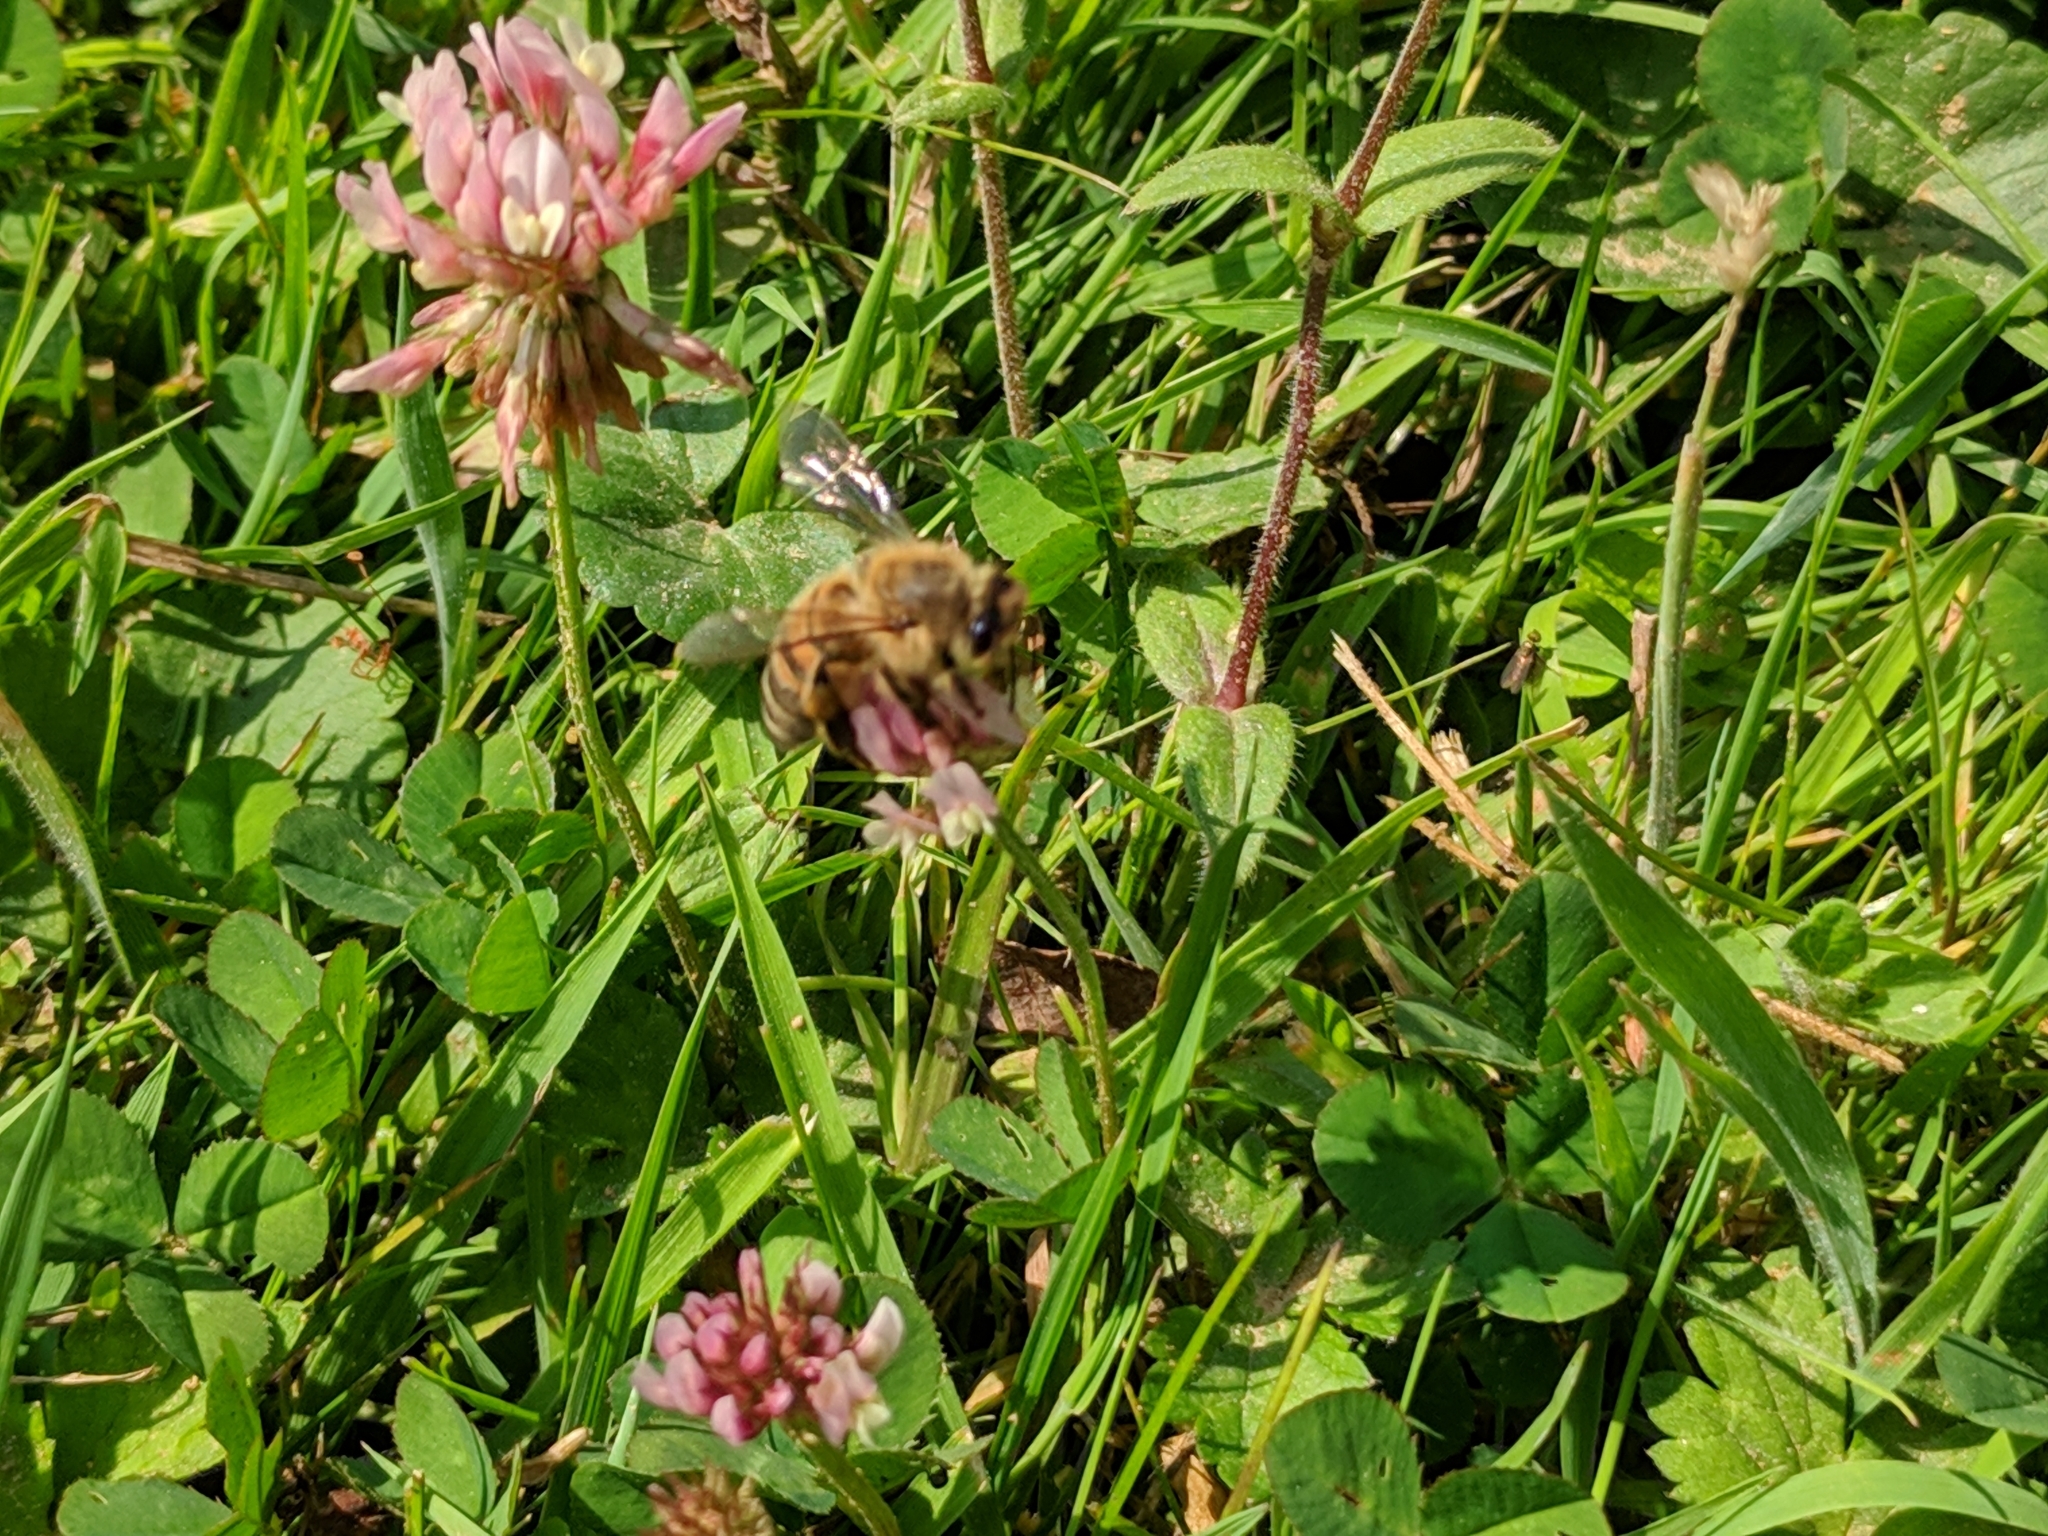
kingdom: Animalia
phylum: Arthropoda
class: Insecta
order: Hymenoptera
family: Apidae
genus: Apis
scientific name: Apis mellifera
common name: Honey bee
